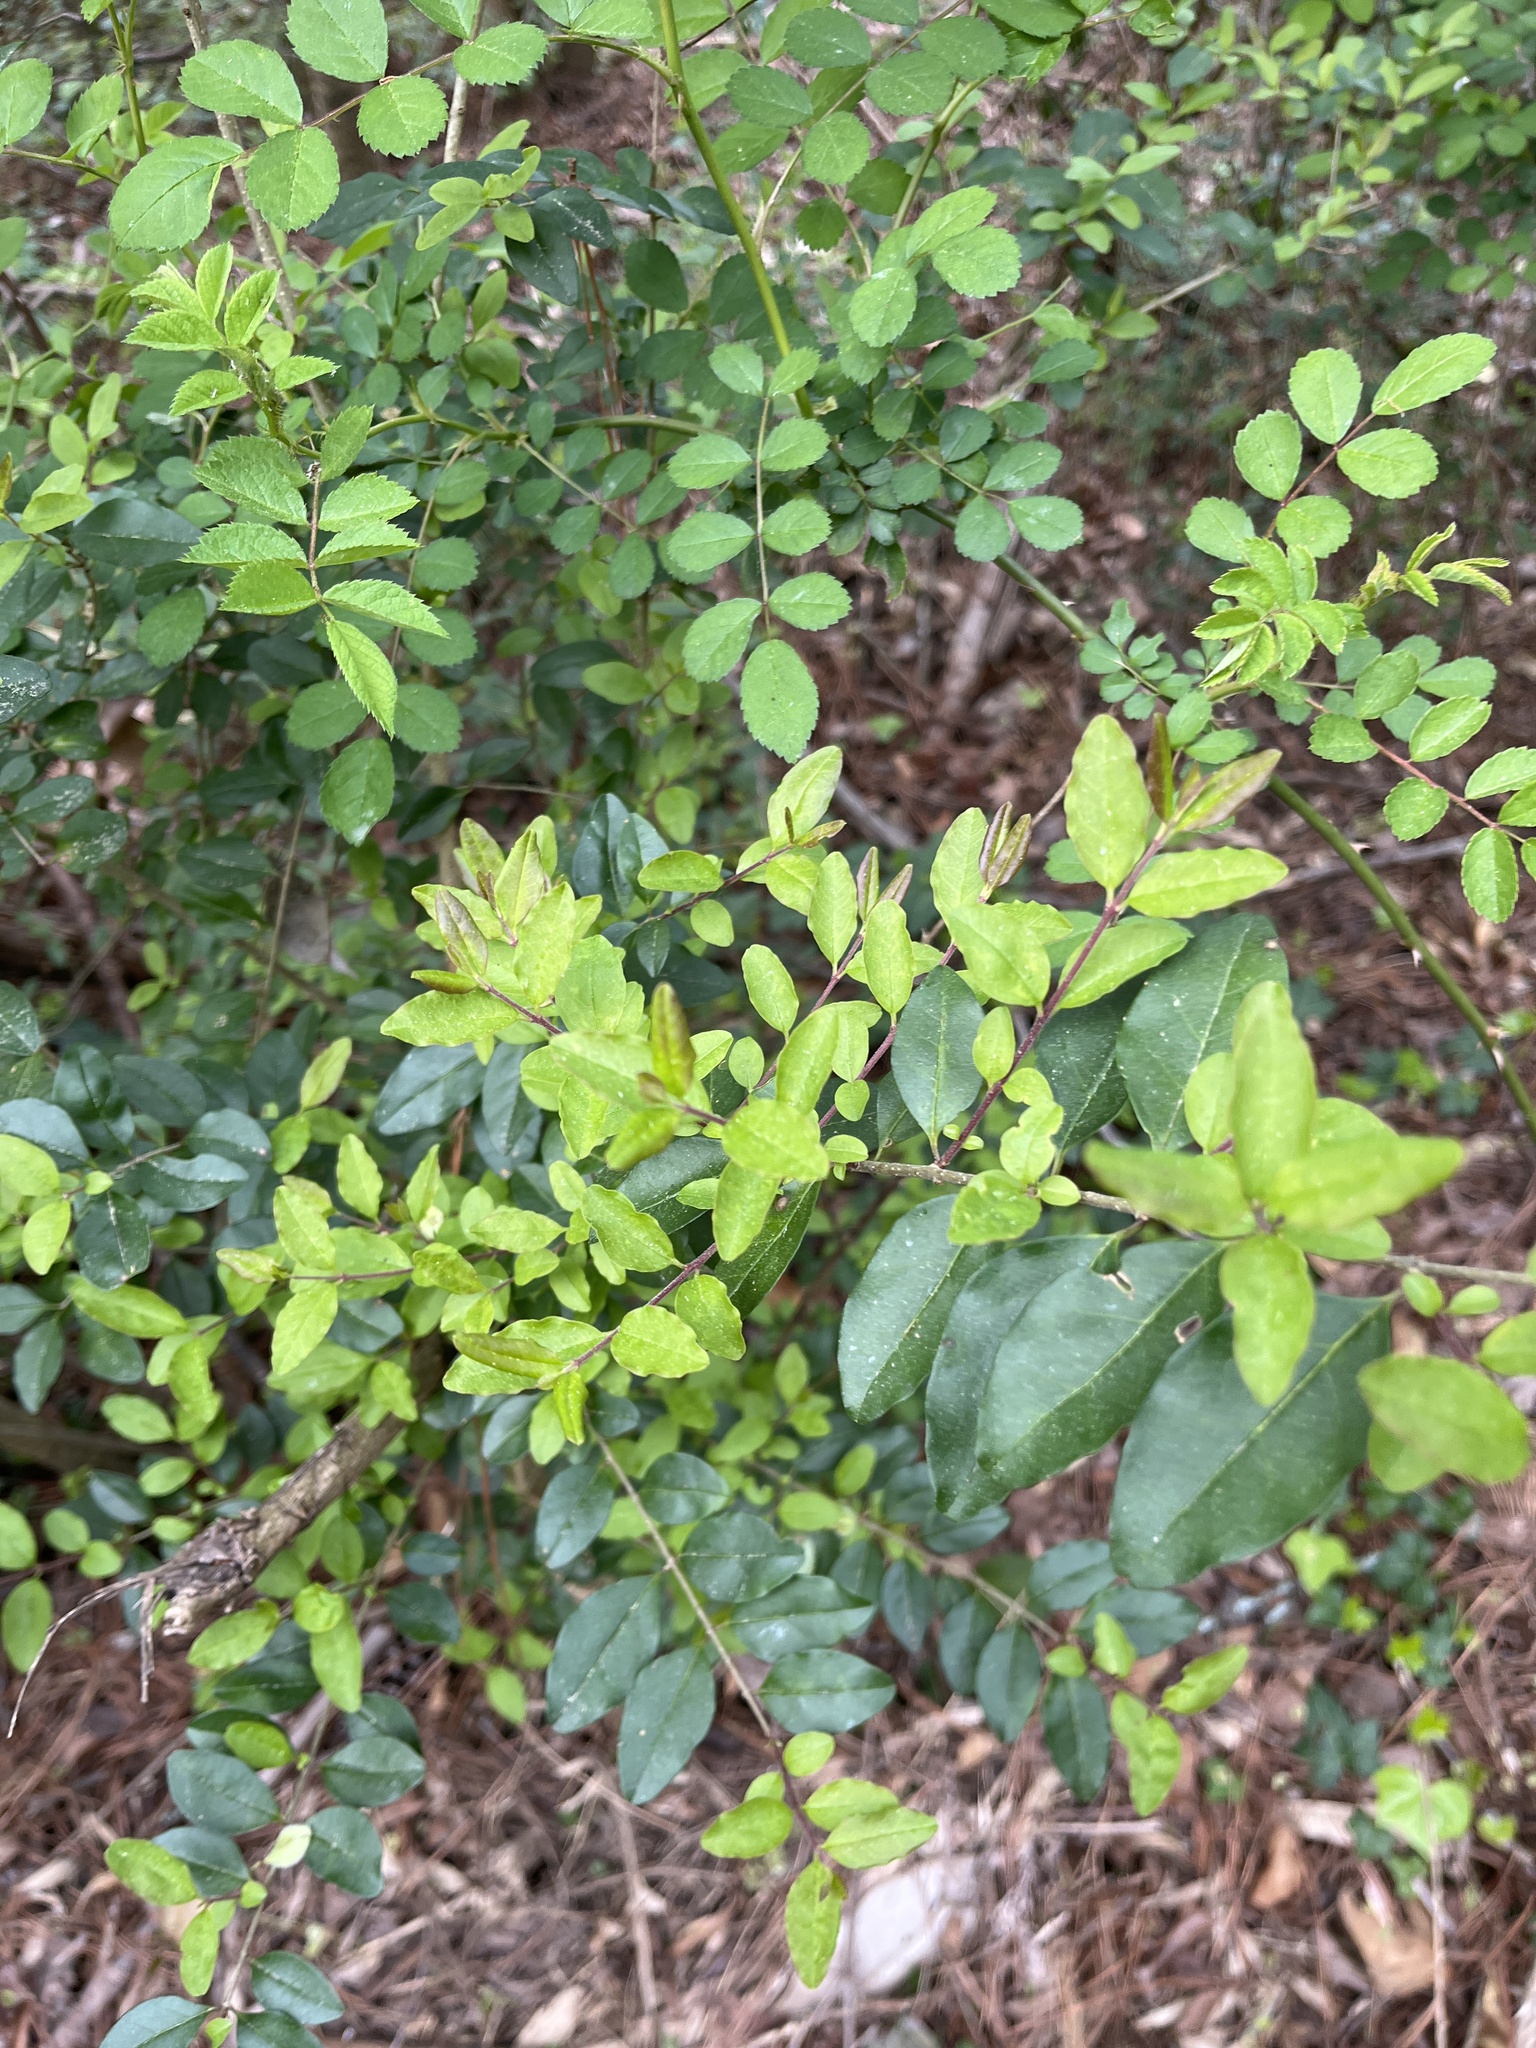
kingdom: Plantae
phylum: Tracheophyta
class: Magnoliopsida
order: Lamiales
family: Oleaceae
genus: Ligustrum
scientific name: Ligustrum sinense
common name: Chinese privet
